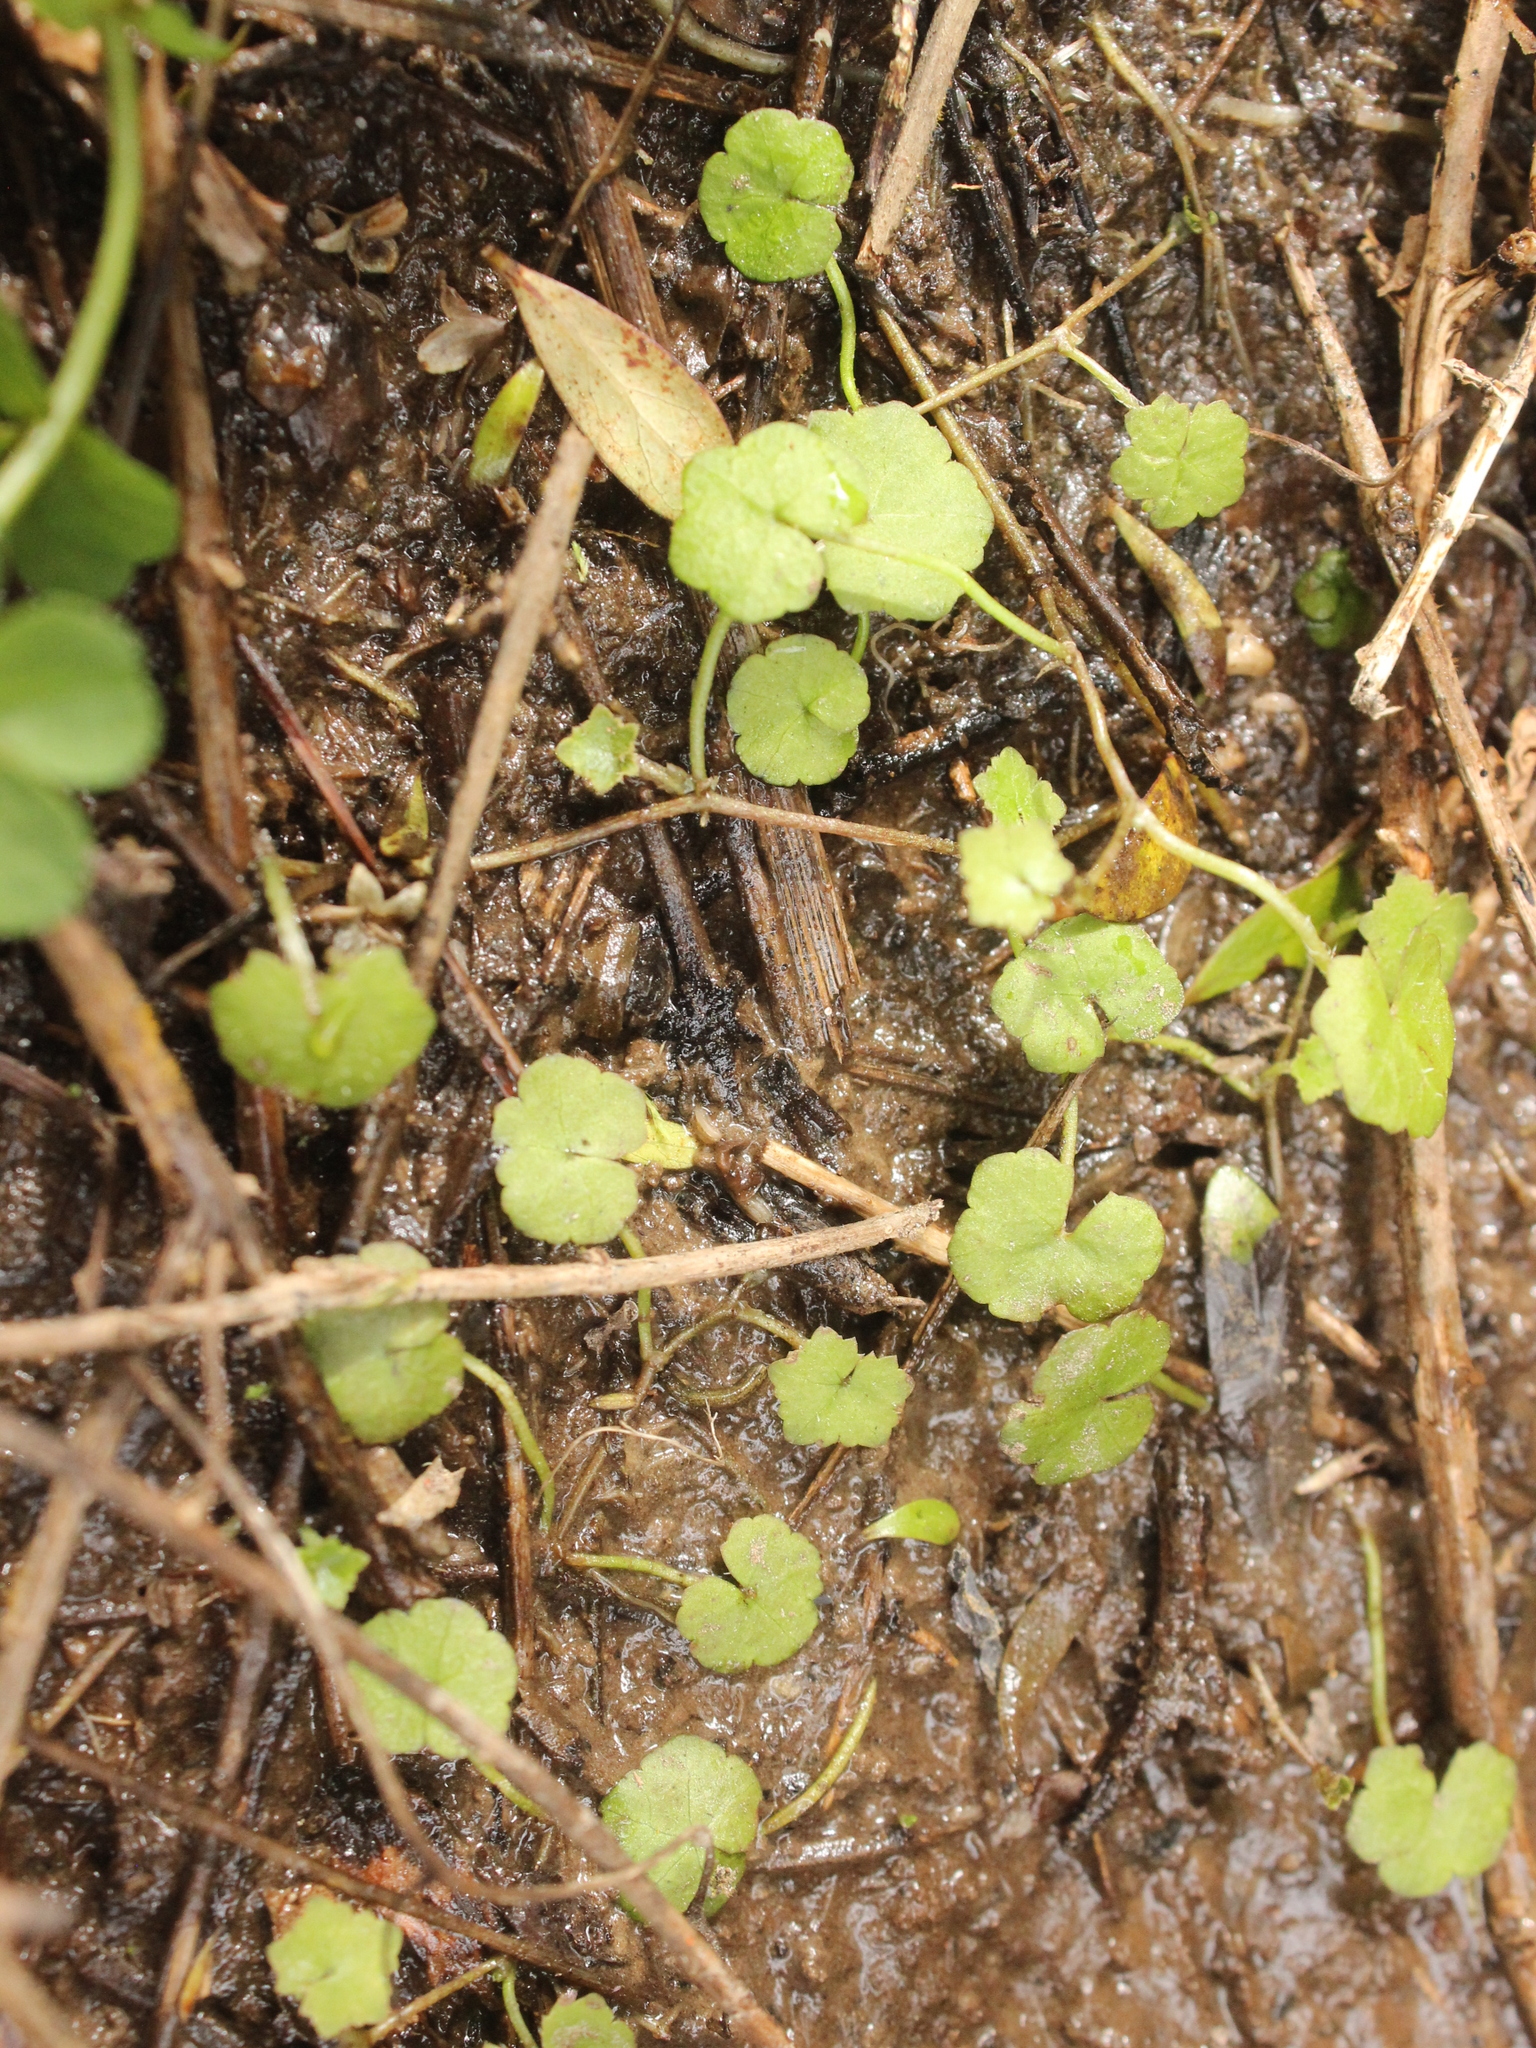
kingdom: Plantae
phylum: Tracheophyta
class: Magnoliopsida
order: Apiales
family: Araliaceae
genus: Hydrocotyle
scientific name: Hydrocotyle novae-zeelandiae
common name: New zealand pennywort
